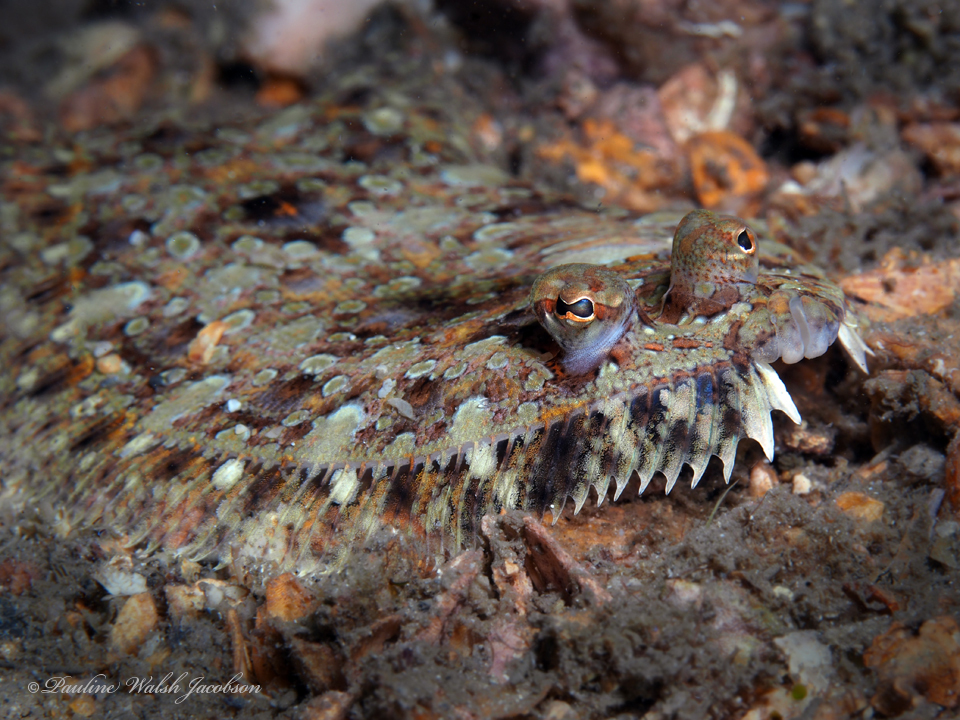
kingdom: Animalia
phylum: Chordata
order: Pleuronectiformes
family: Bothidae
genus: Bothus
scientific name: Bothus ocellatus
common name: Eyed flounder
